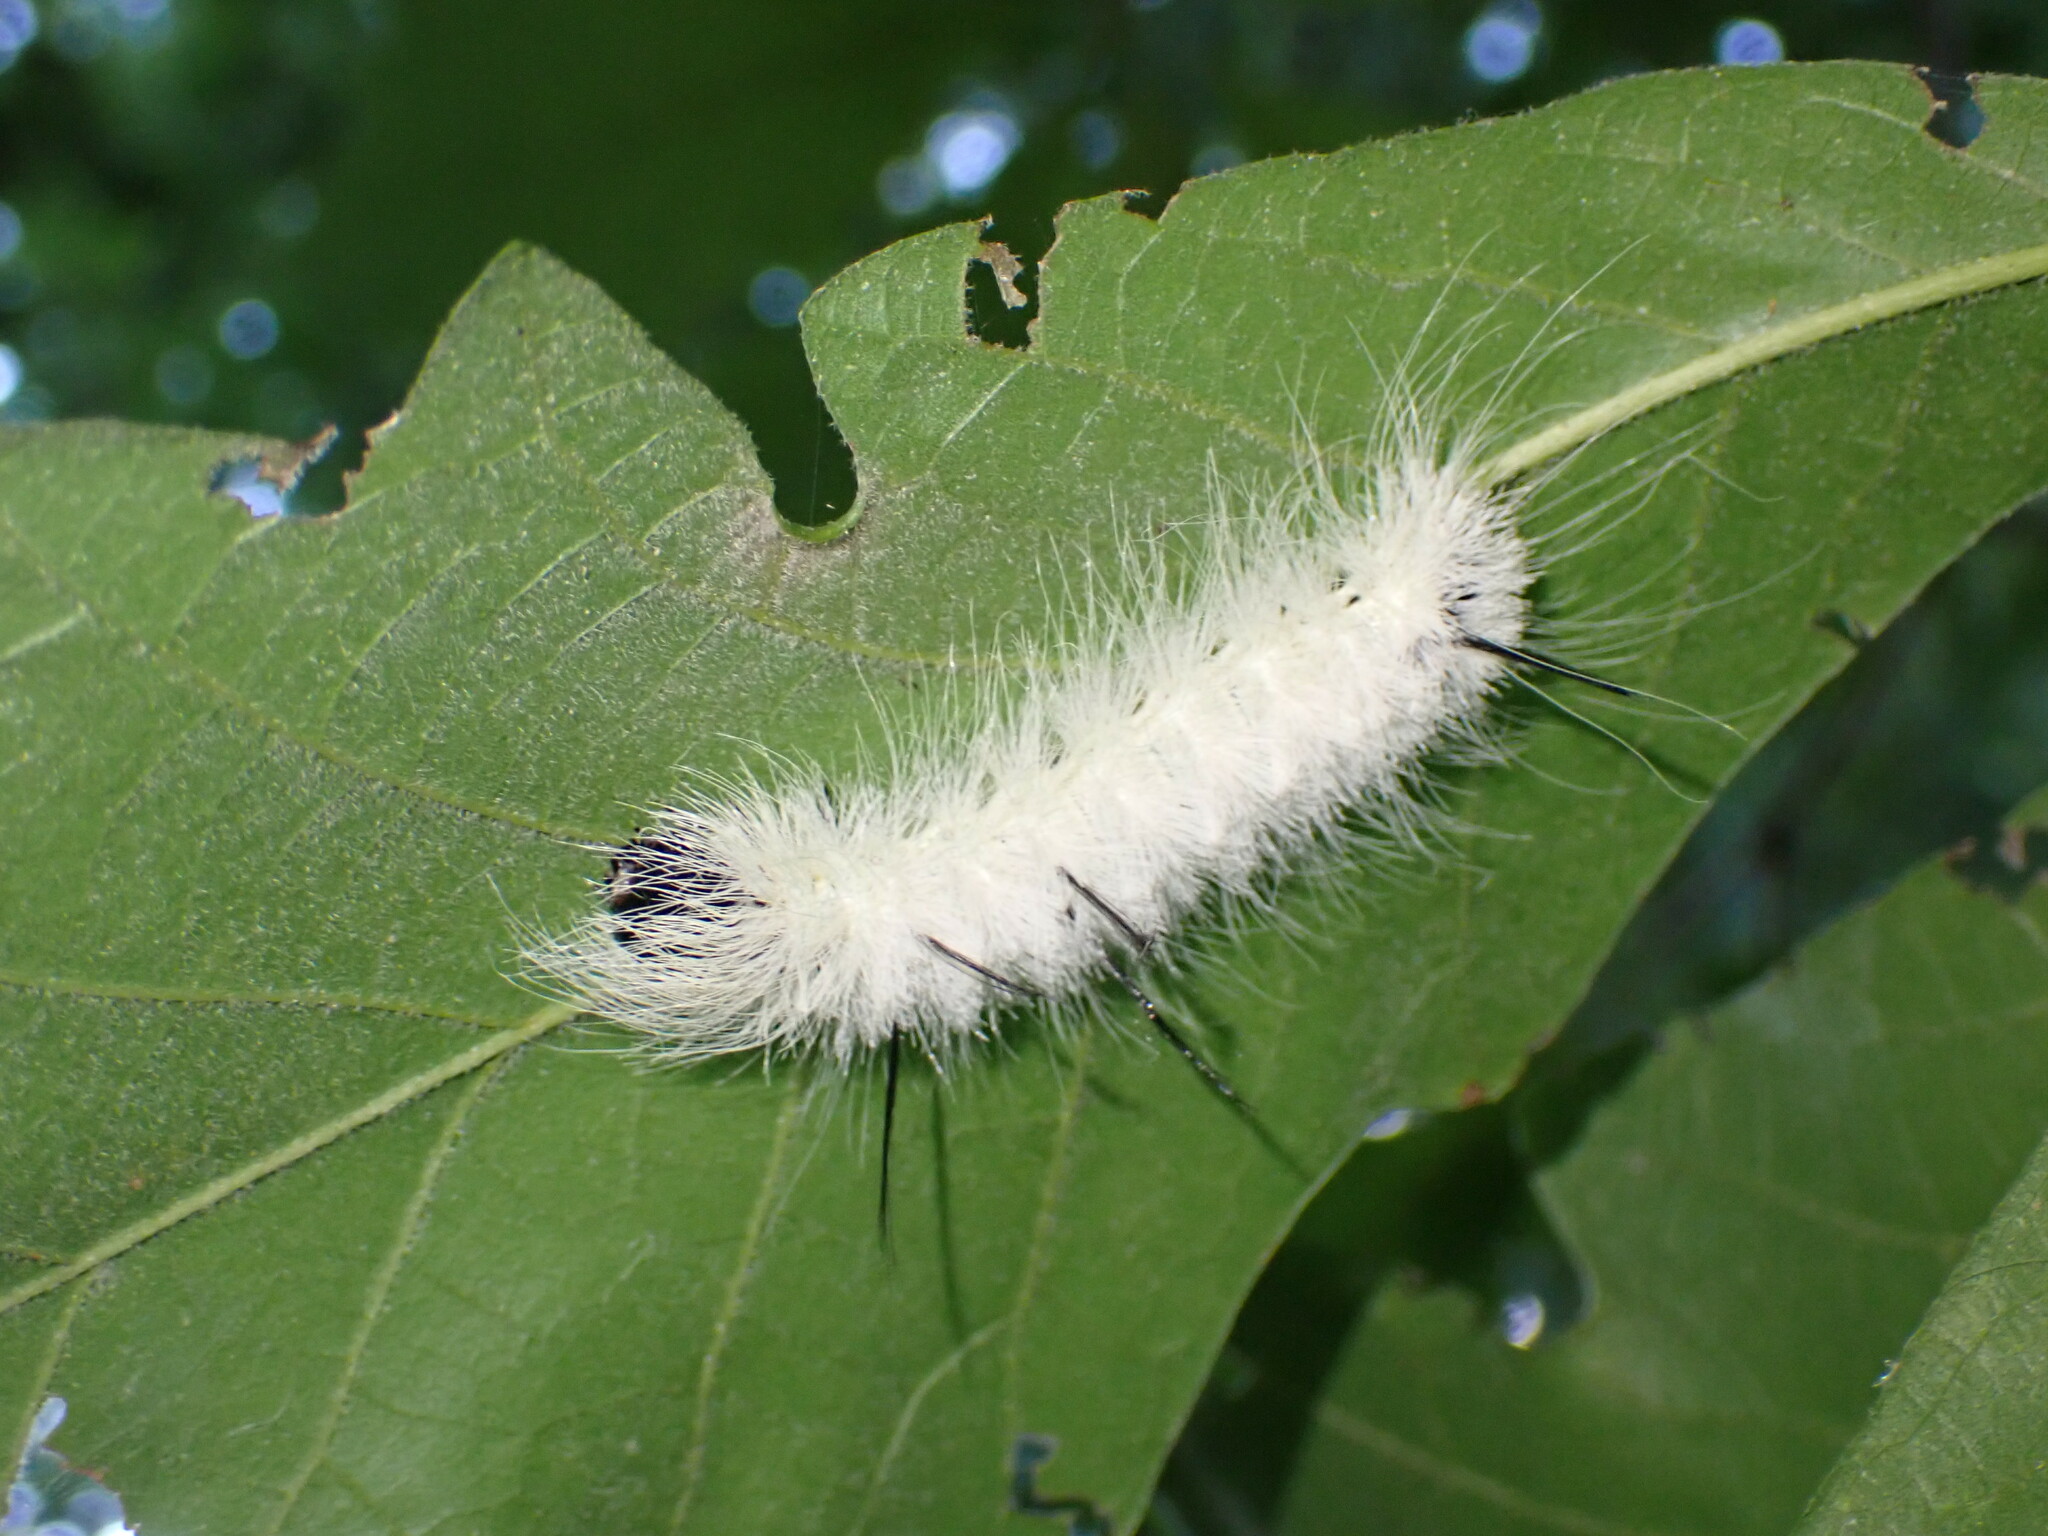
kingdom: Animalia
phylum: Arthropoda
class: Insecta
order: Lepidoptera
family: Noctuidae
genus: Acronicta
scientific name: Acronicta americana
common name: American dagger
